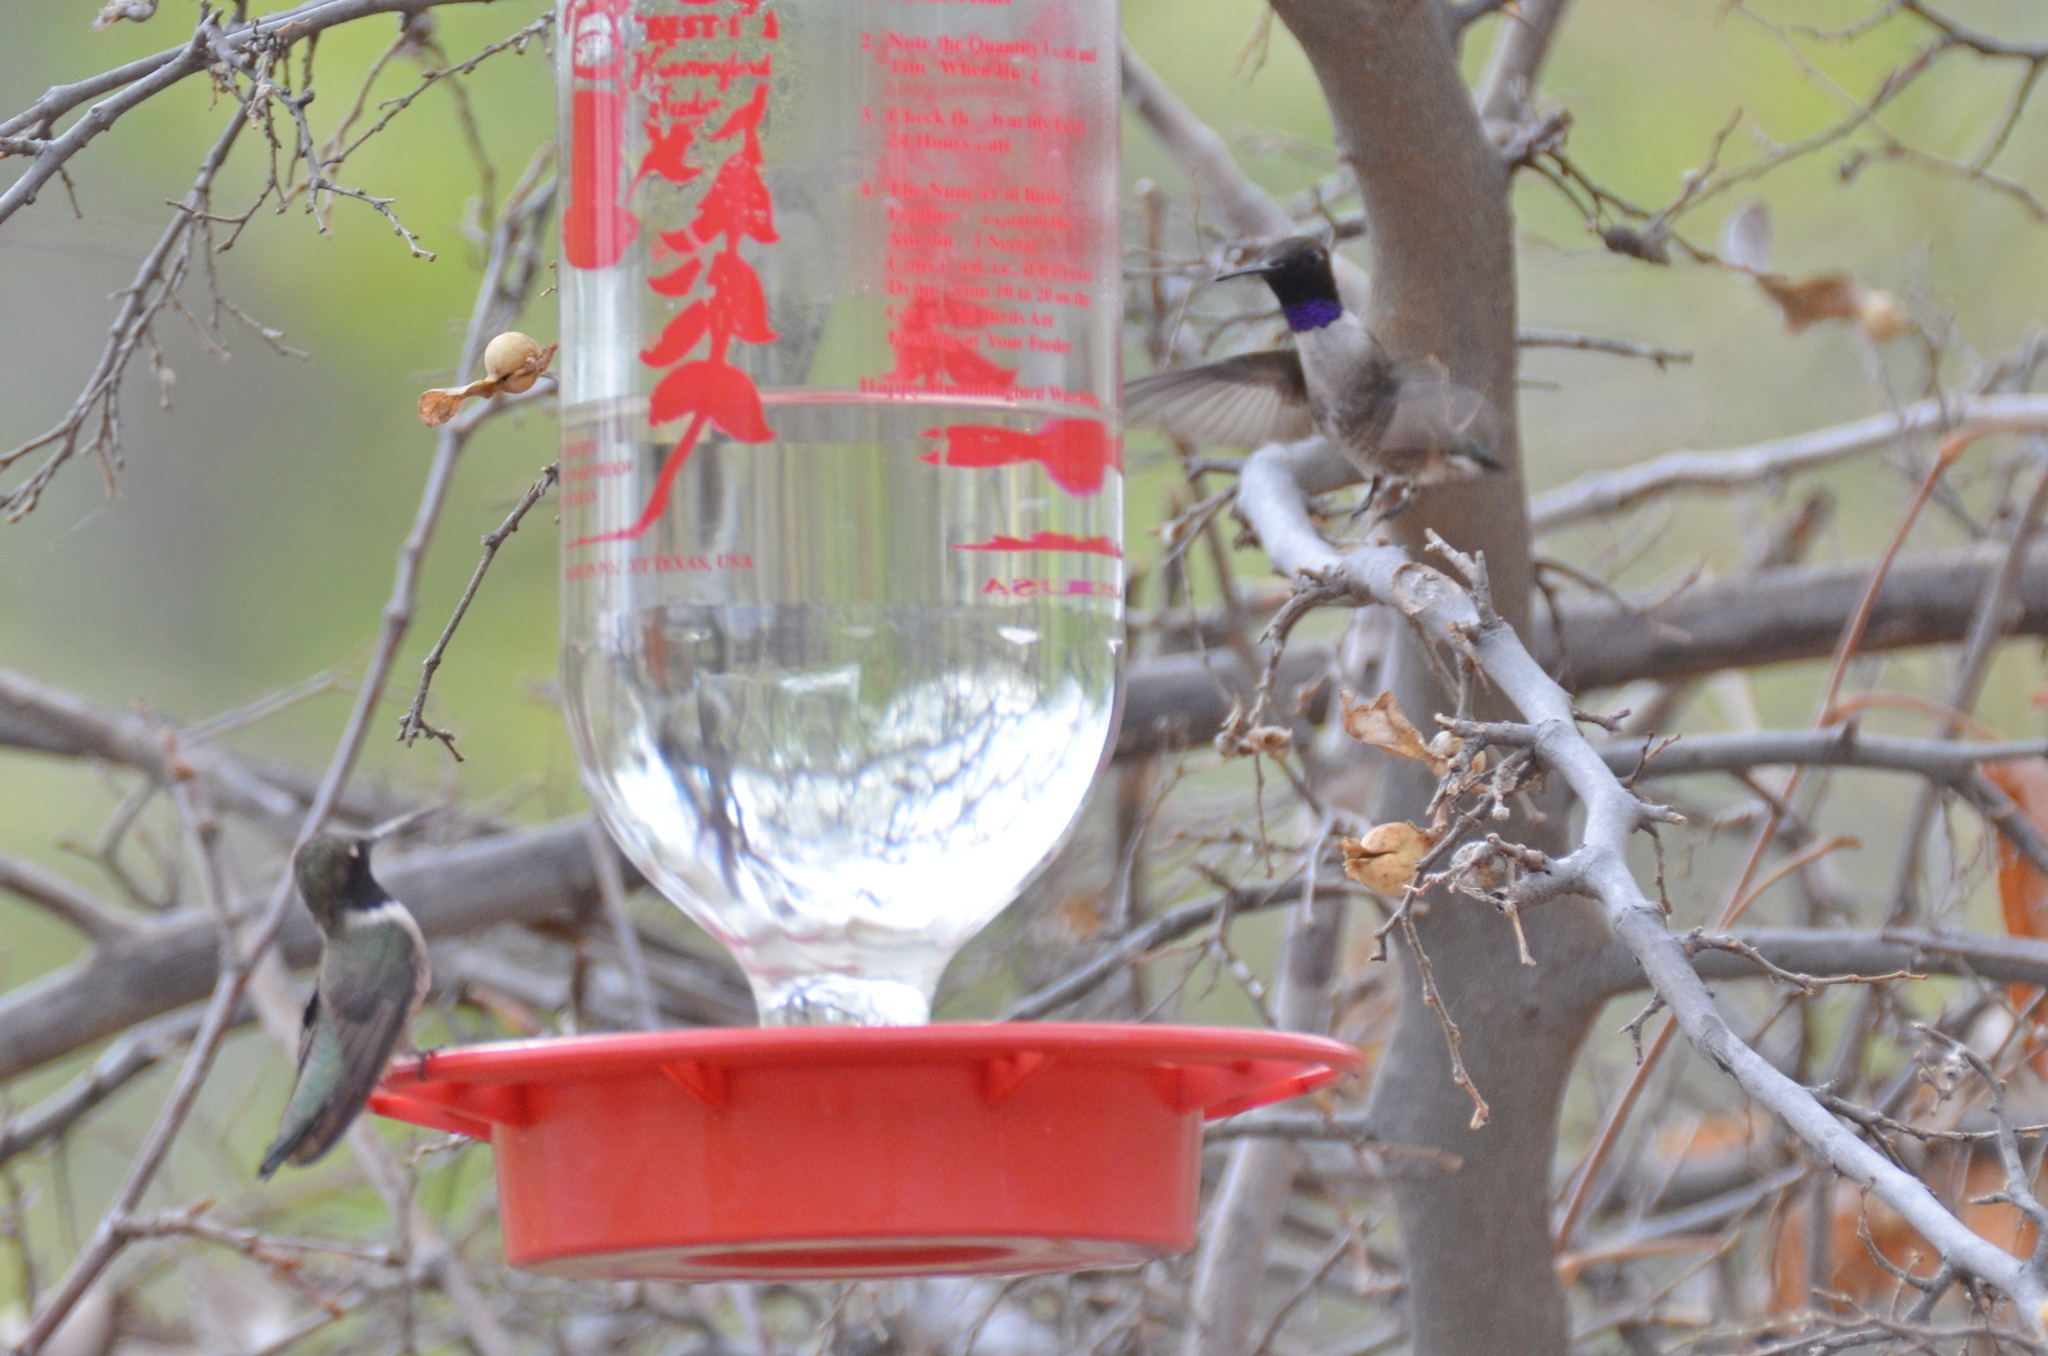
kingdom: Animalia
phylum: Chordata
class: Aves
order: Apodiformes
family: Trochilidae
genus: Archilochus
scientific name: Archilochus alexandri
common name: Black-chinned hummingbird
